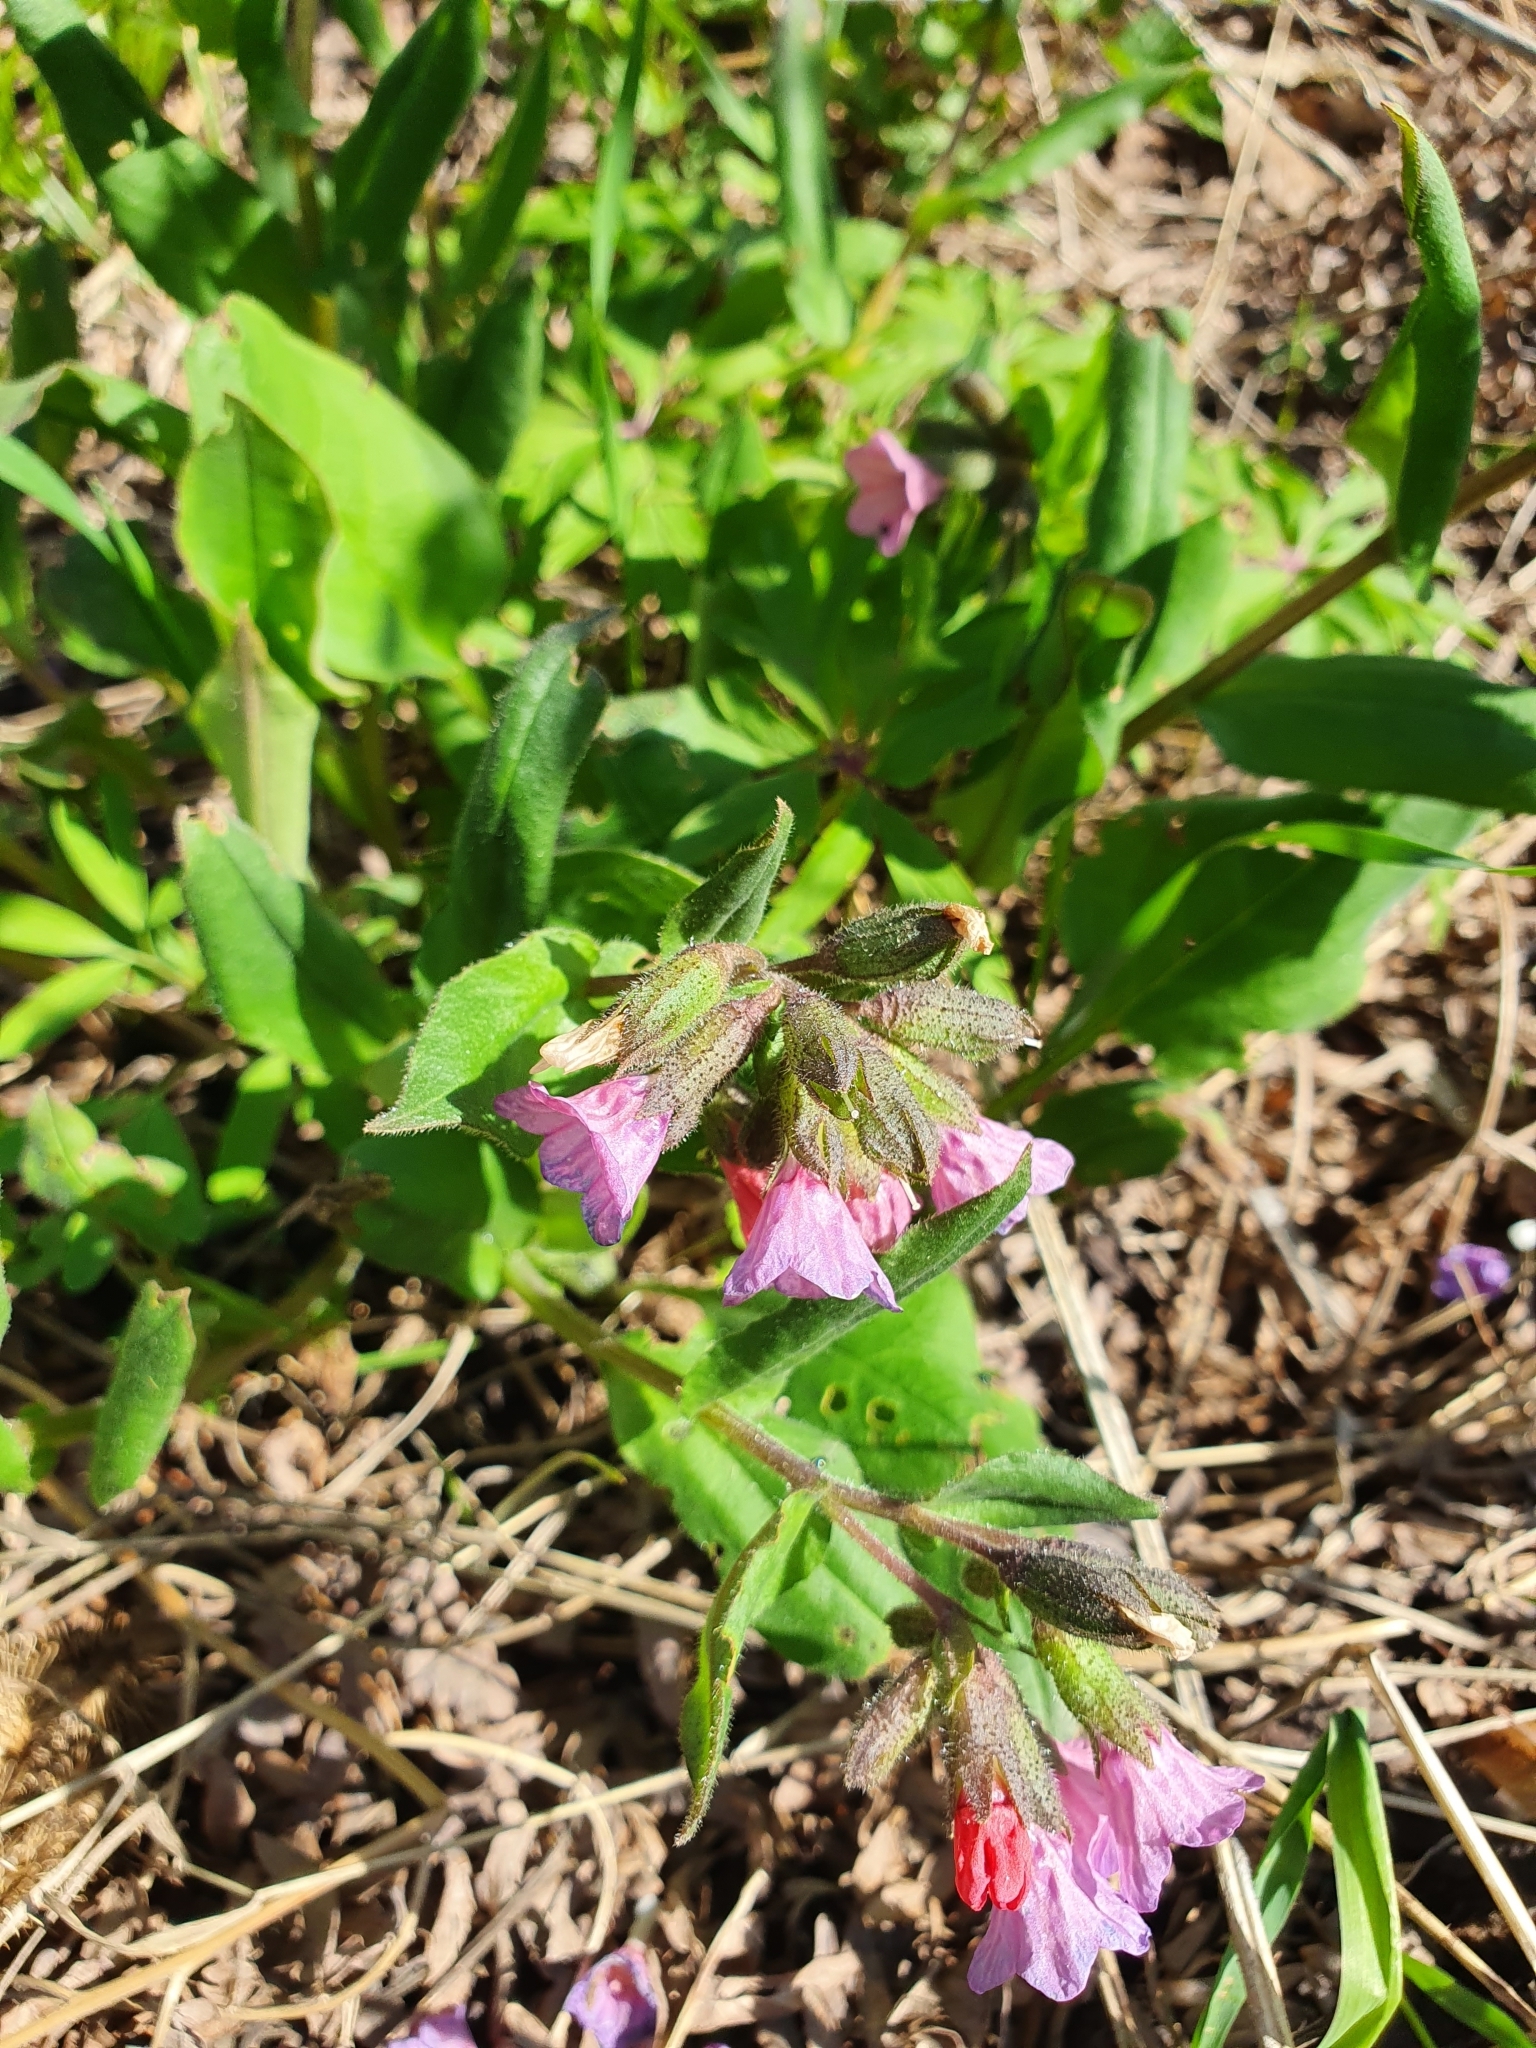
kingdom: Plantae
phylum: Tracheophyta
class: Magnoliopsida
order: Boraginales
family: Boraginaceae
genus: Pulmonaria
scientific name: Pulmonaria obscura
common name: Suffolk lungwort
